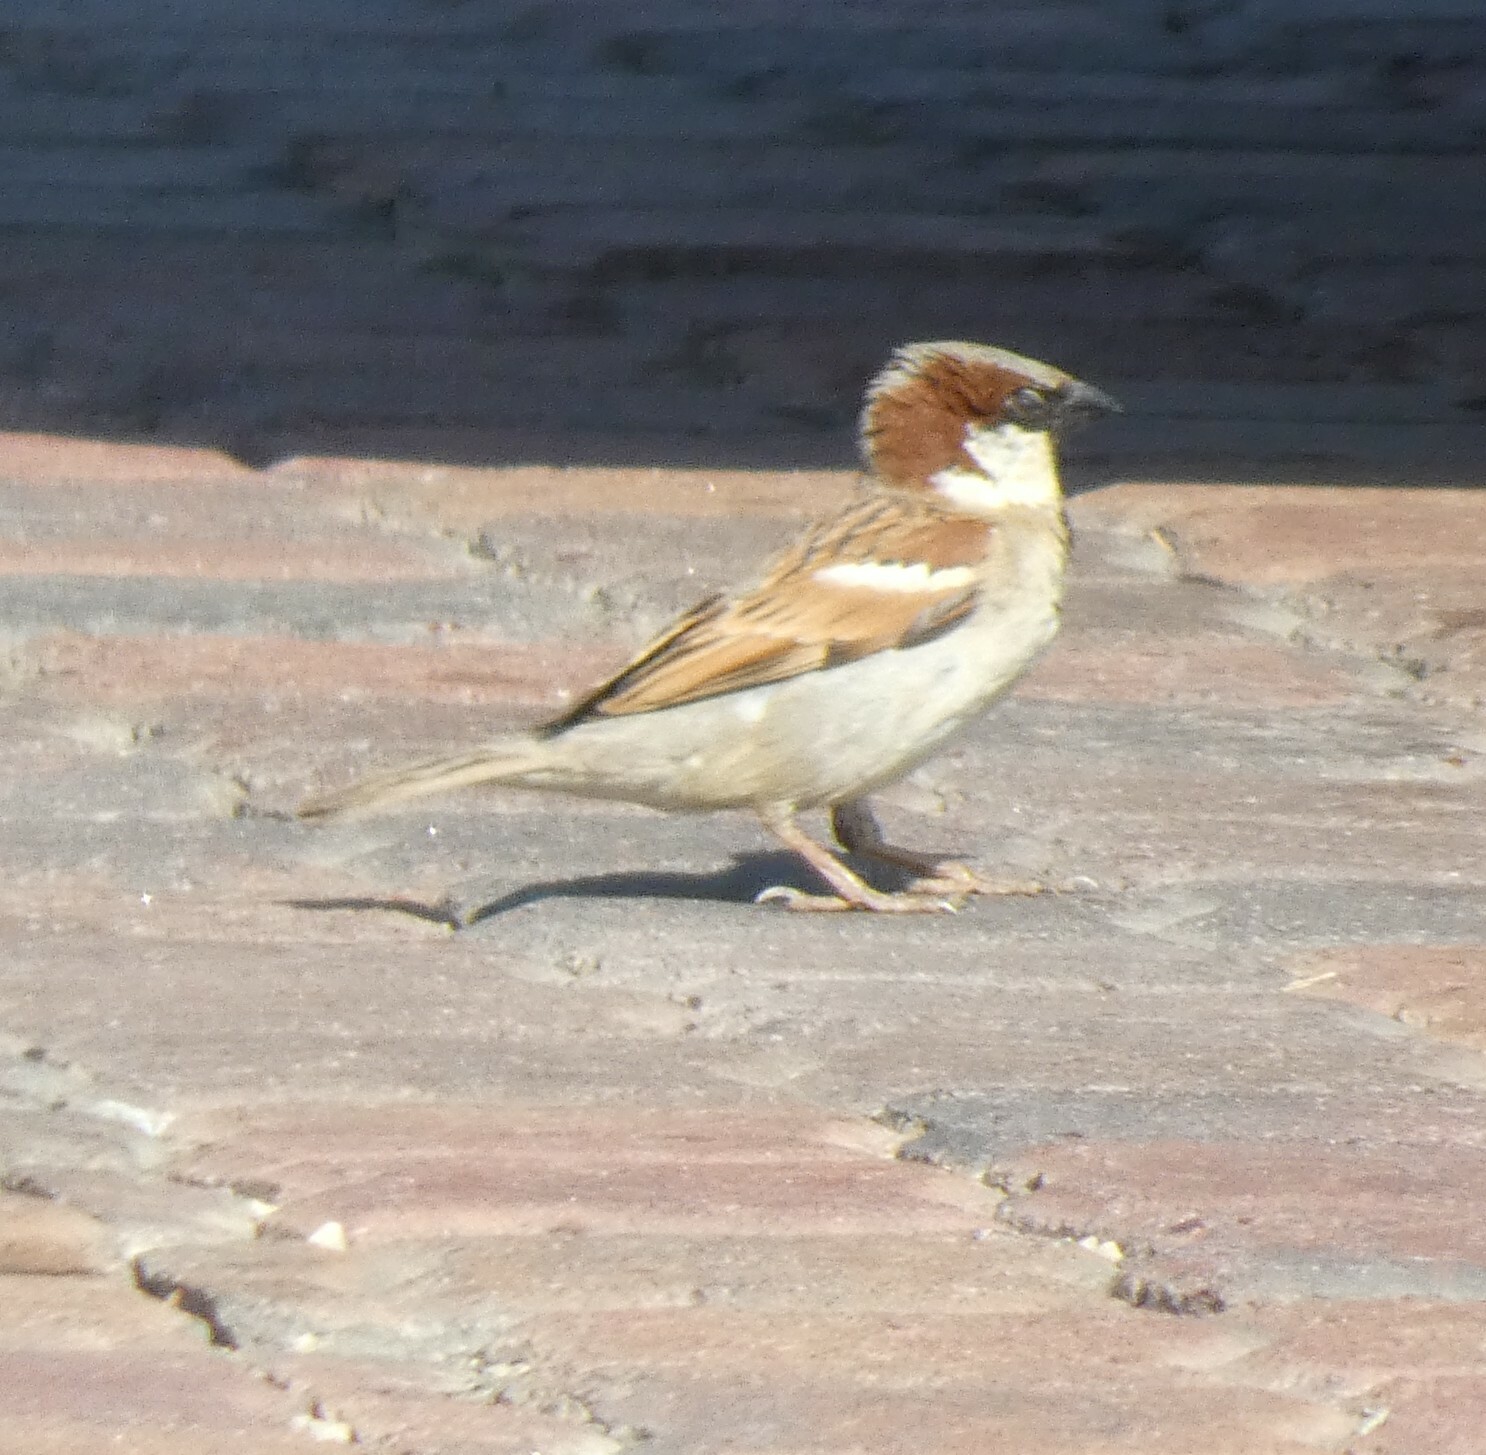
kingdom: Animalia
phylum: Chordata
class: Aves
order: Passeriformes
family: Passeridae
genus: Passer
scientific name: Passer domesticus
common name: House sparrow
